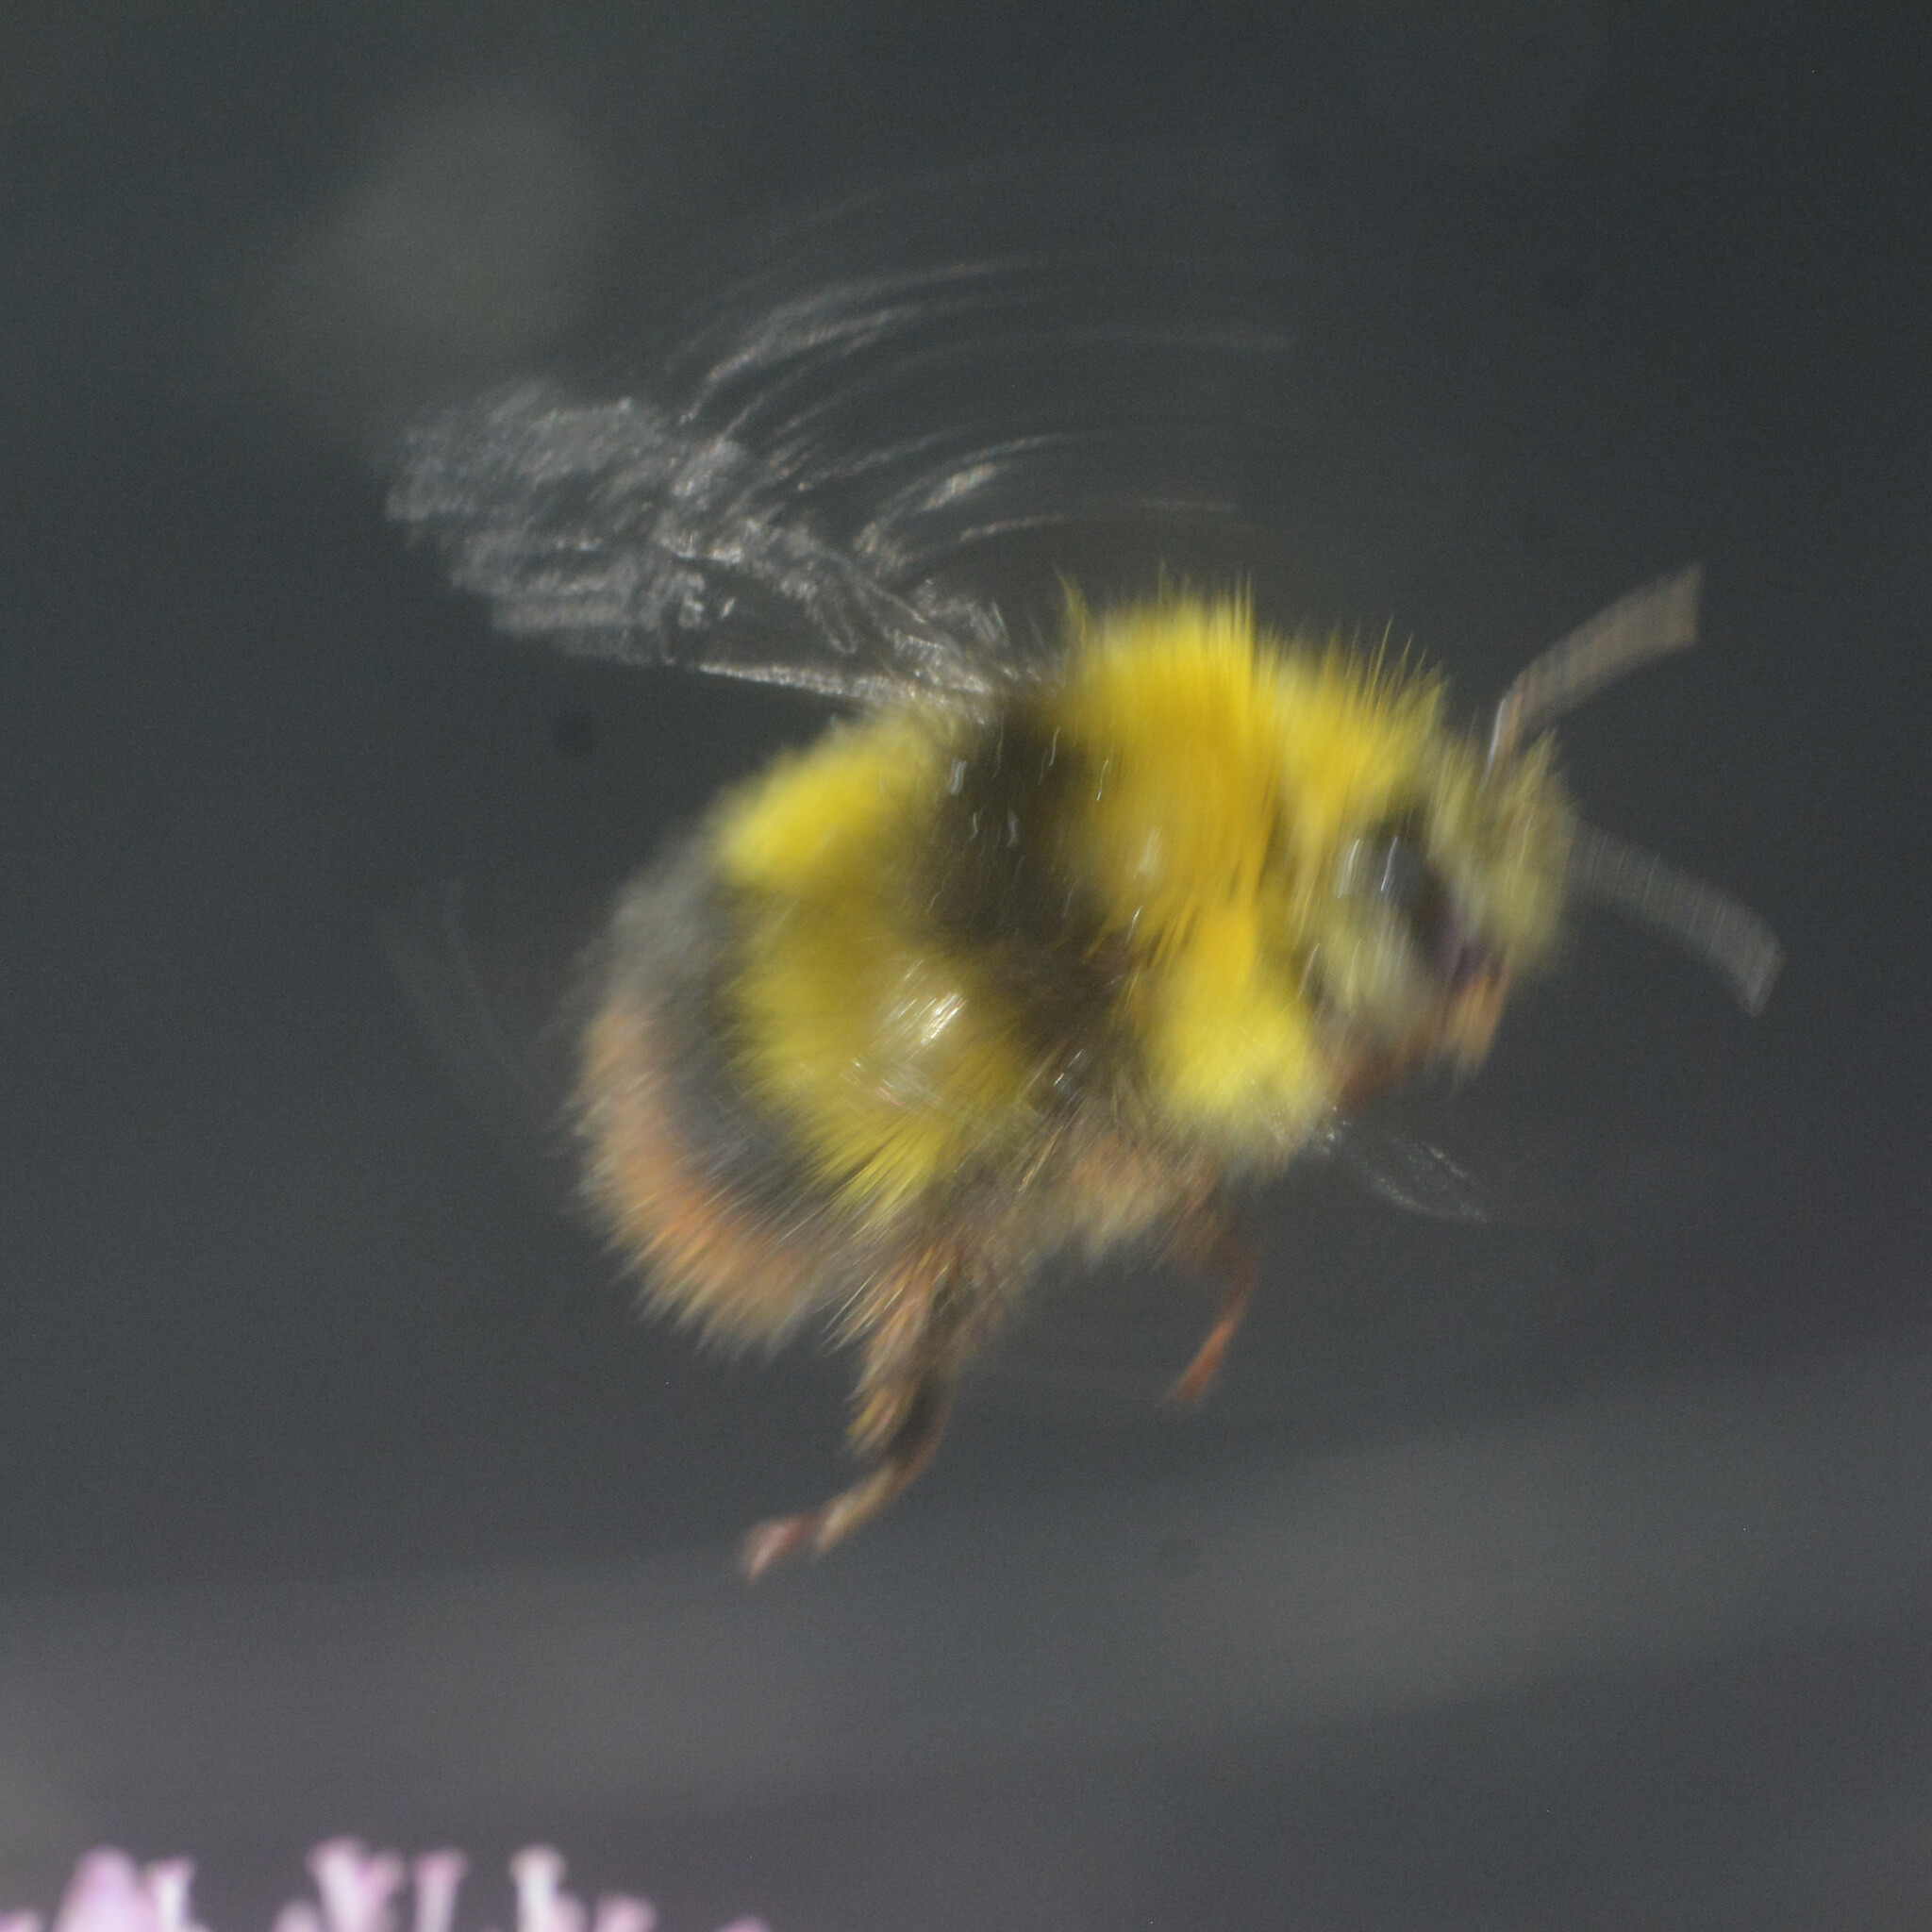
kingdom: Animalia
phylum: Arthropoda
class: Insecta
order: Hymenoptera
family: Apidae
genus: Bombus
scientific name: Bombus pratorum
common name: Early humble-bee
